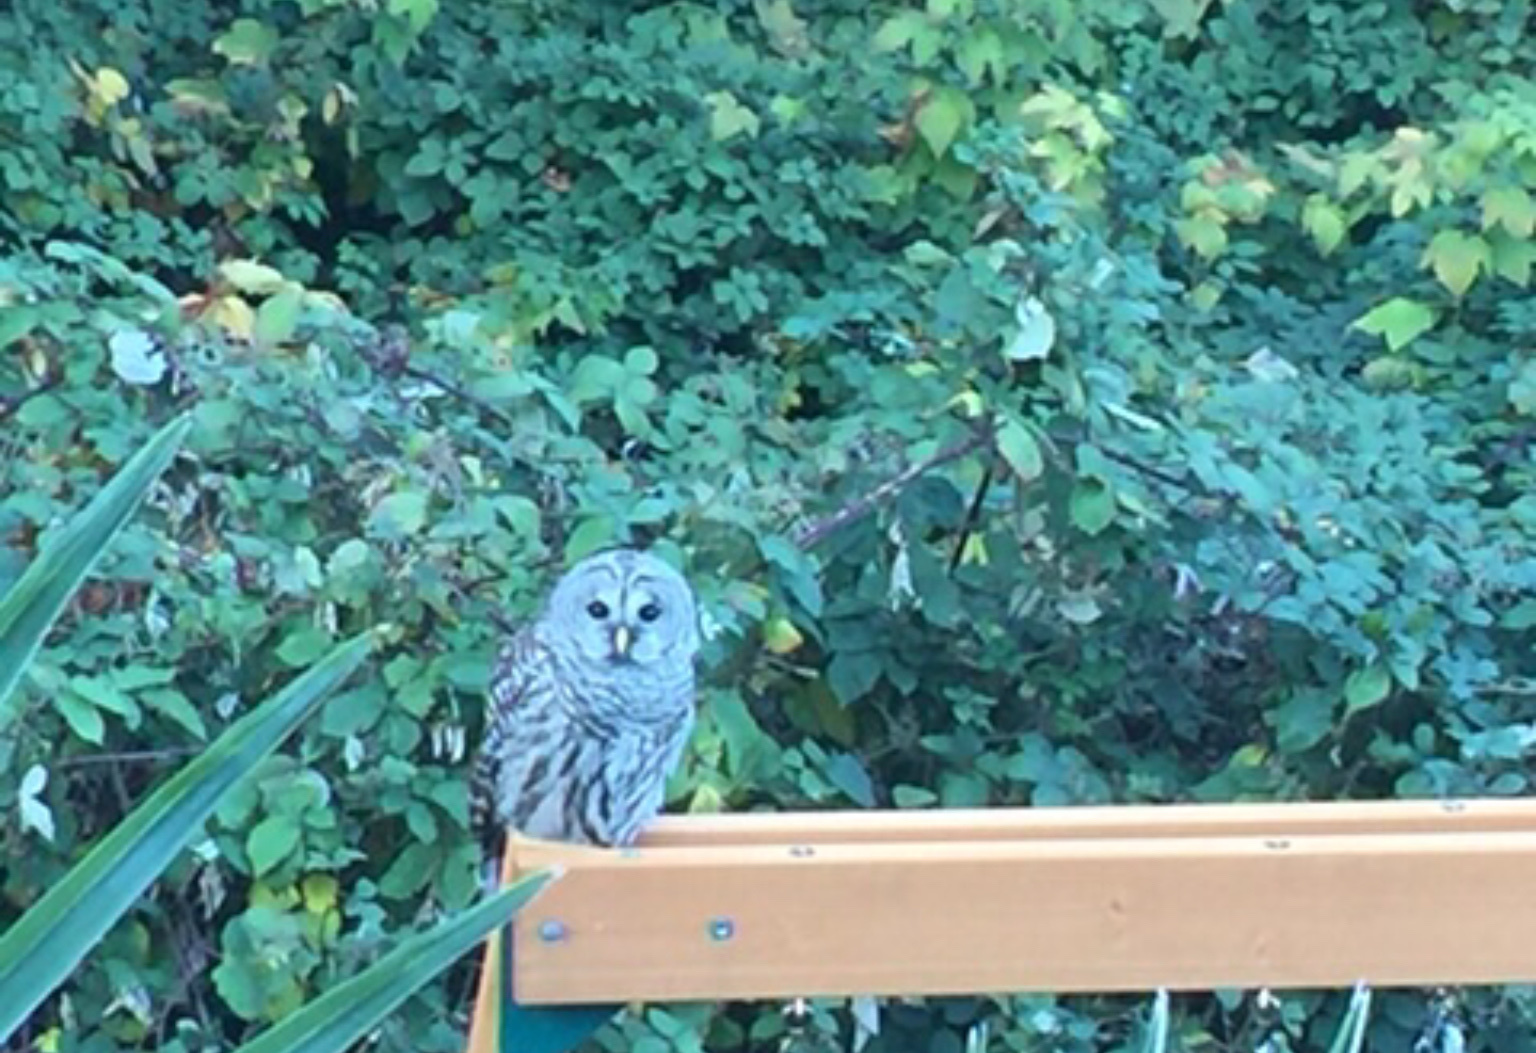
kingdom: Animalia
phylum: Chordata
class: Aves
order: Strigiformes
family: Strigidae
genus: Strix
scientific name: Strix varia
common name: Barred owl
